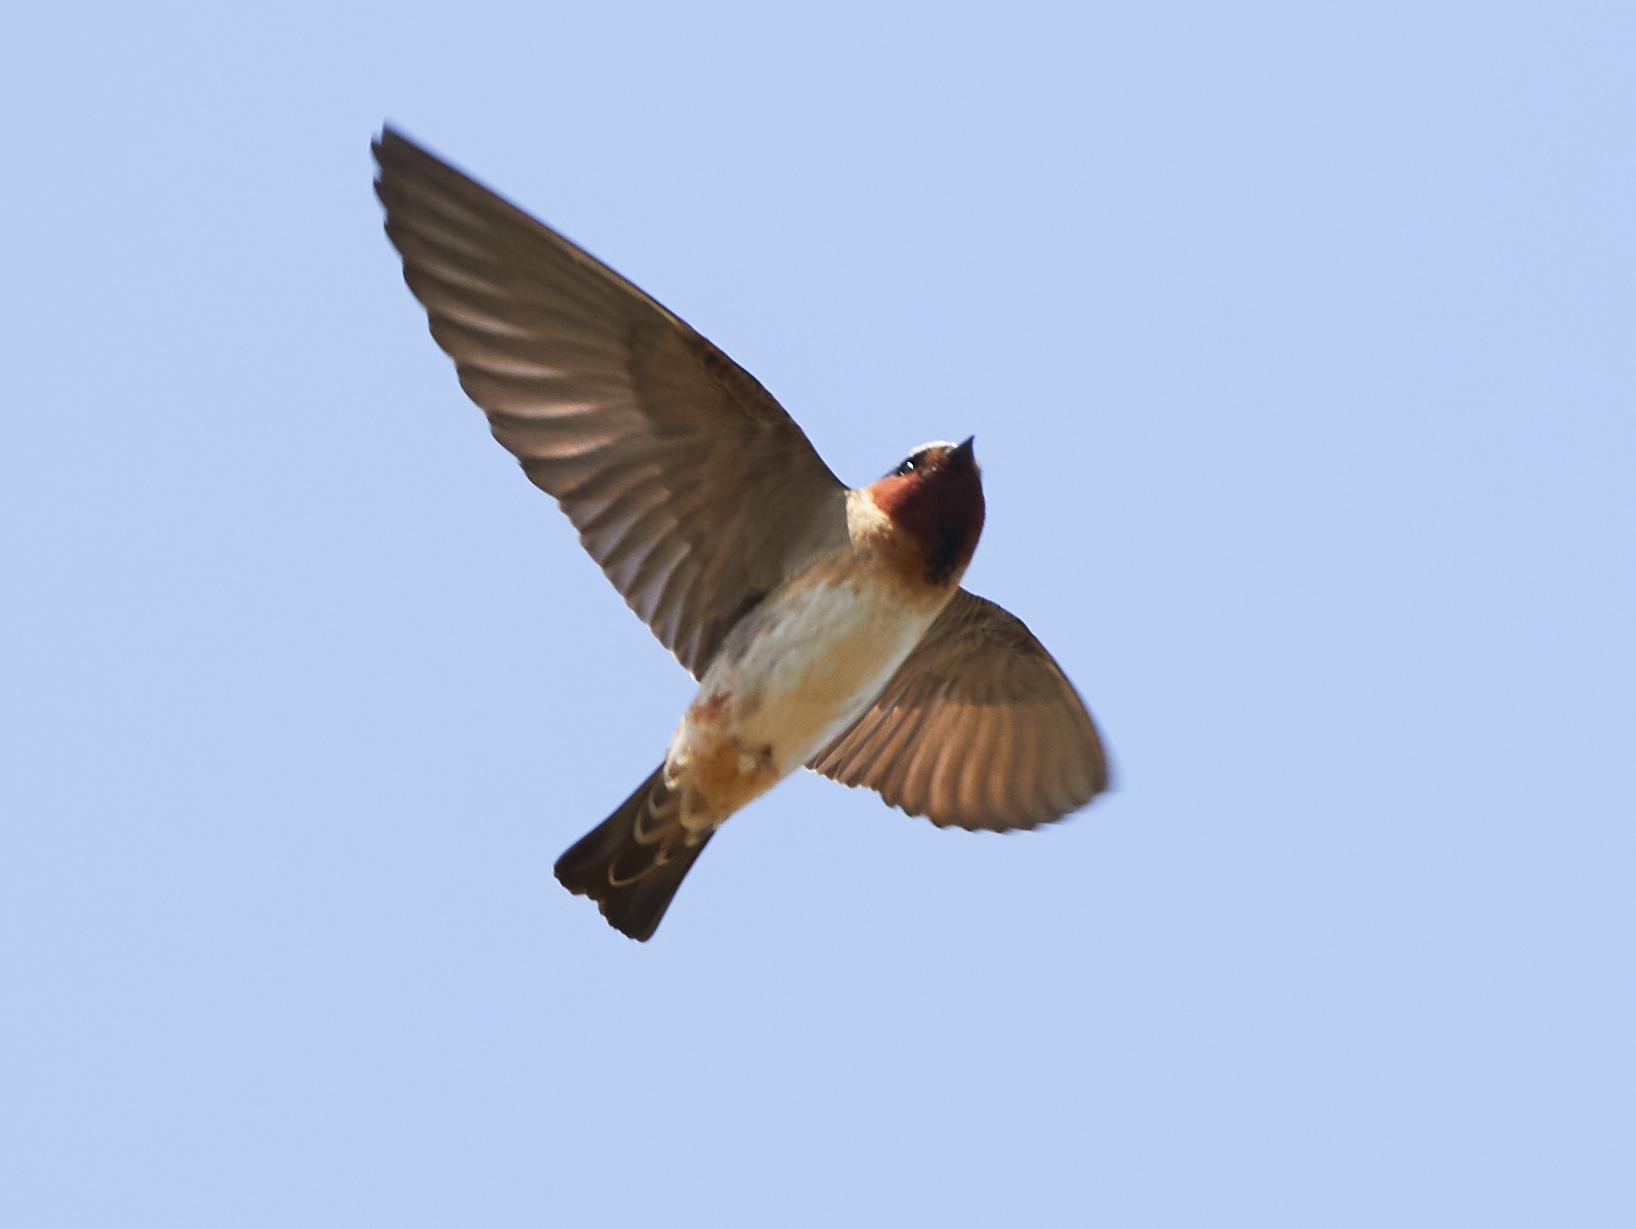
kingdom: Animalia
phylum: Chordata
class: Aves
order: Passeriformes
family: Hirundinidae
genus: Petrochelidon
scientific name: Petrochelidon pyrrhonota
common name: American cliff swallow
